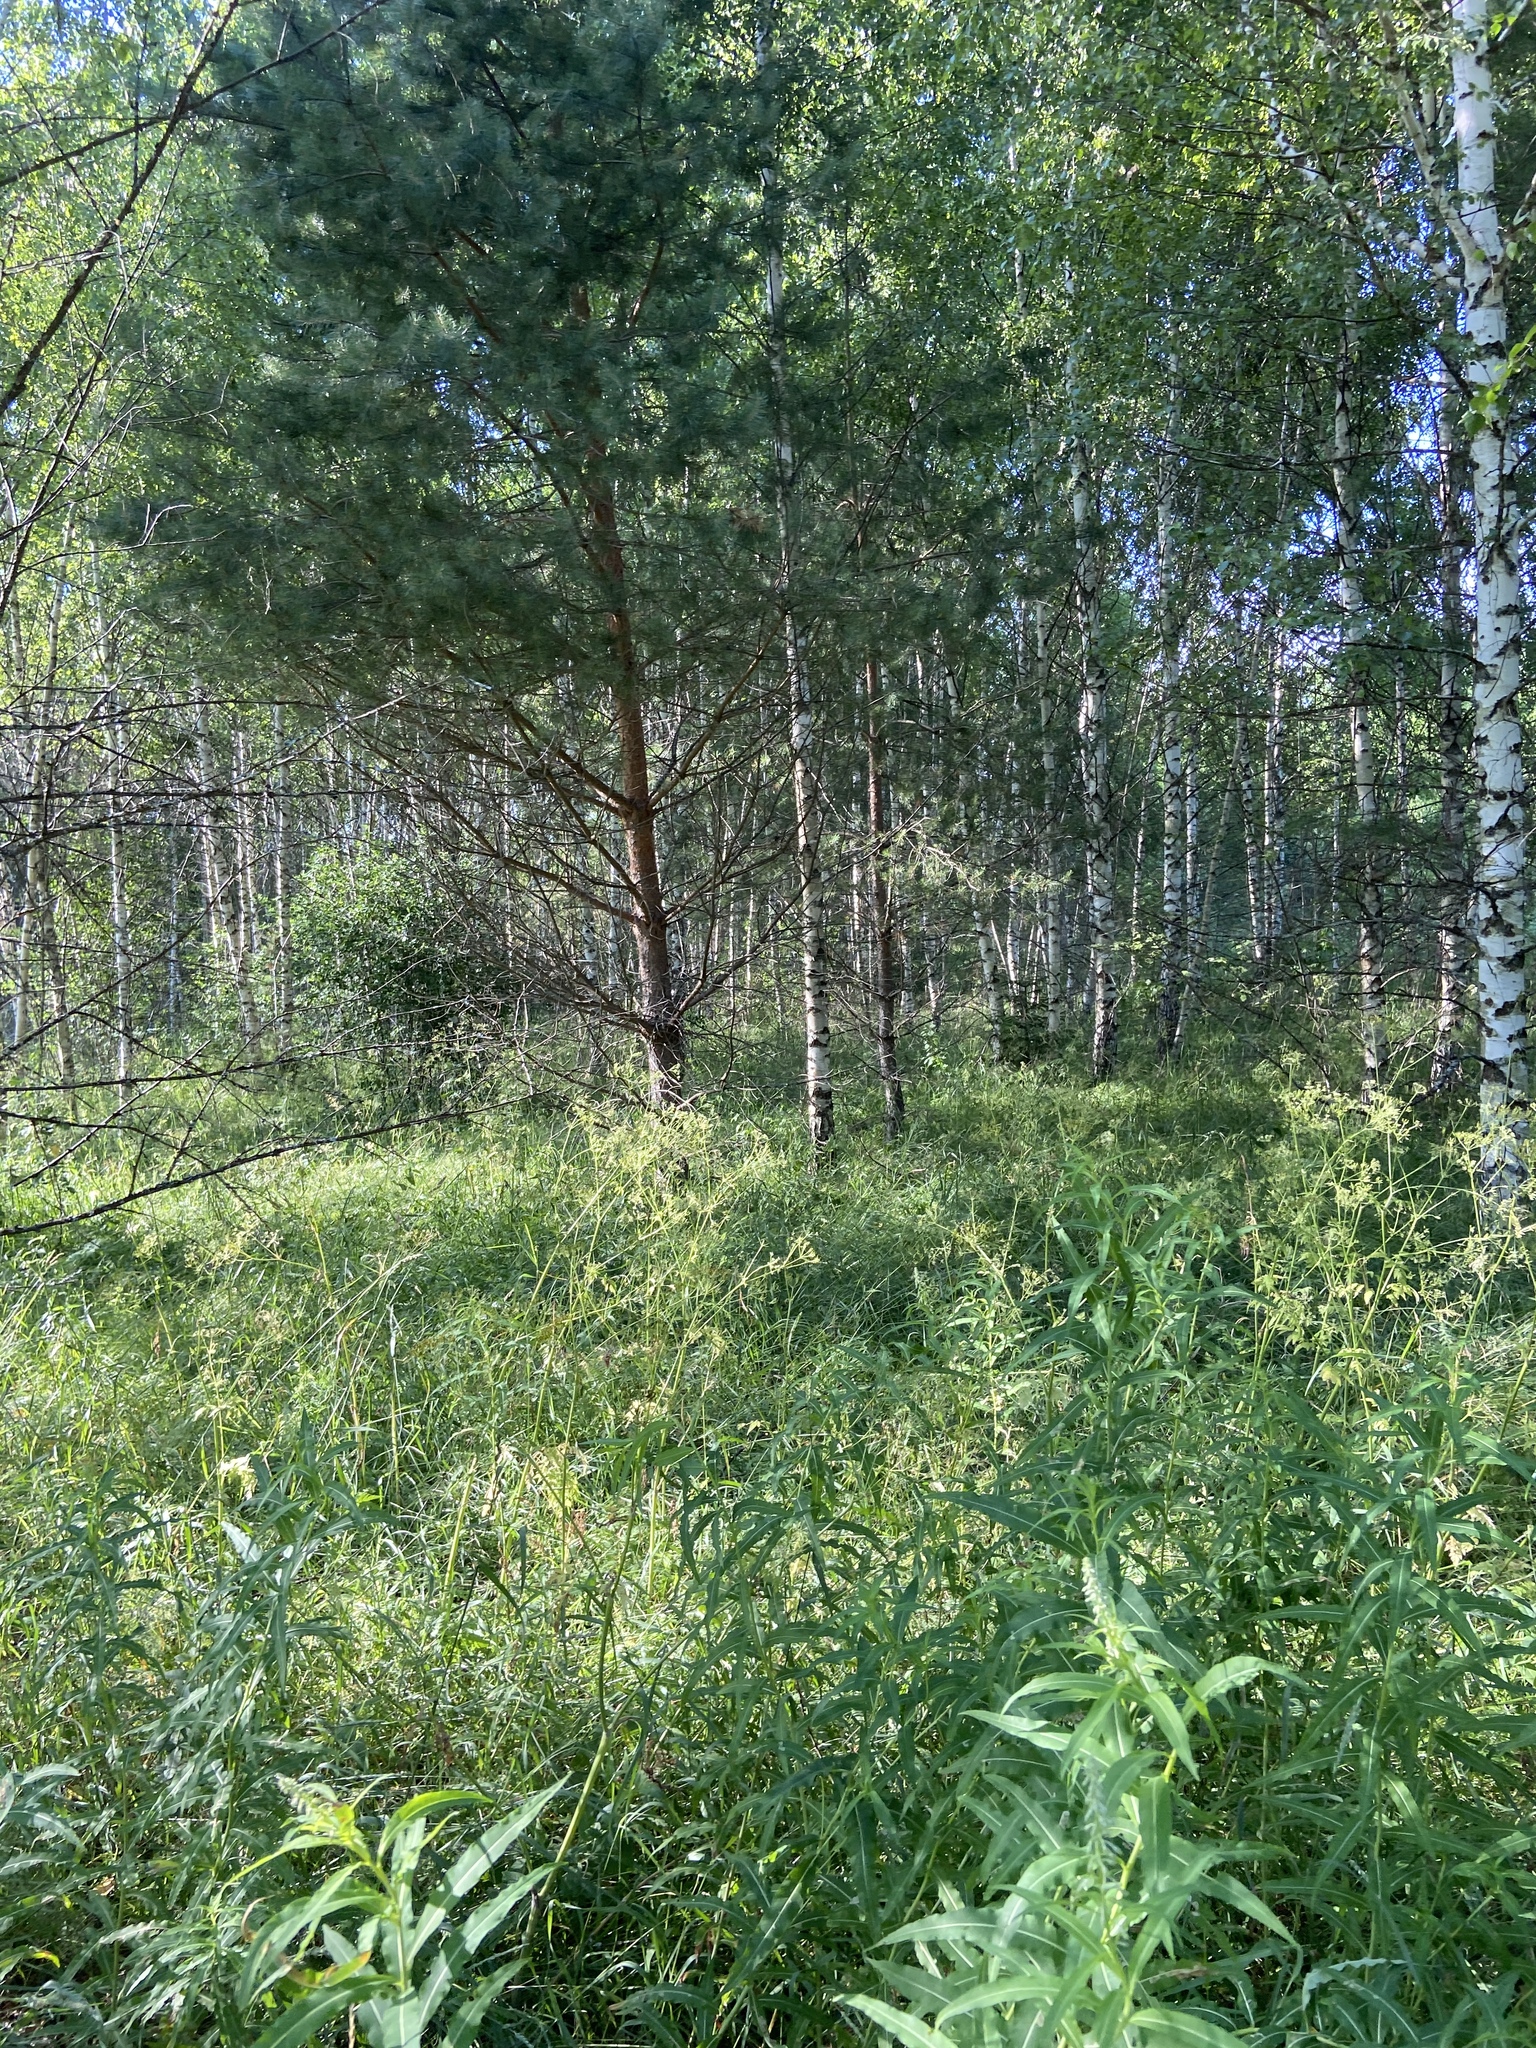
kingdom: Plantae
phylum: Tracheophyta
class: Magnoliopsida
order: Myrtales
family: Onagraceae
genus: Chamaenerion
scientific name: Chamaenerion angustifolium
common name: Fireweed
